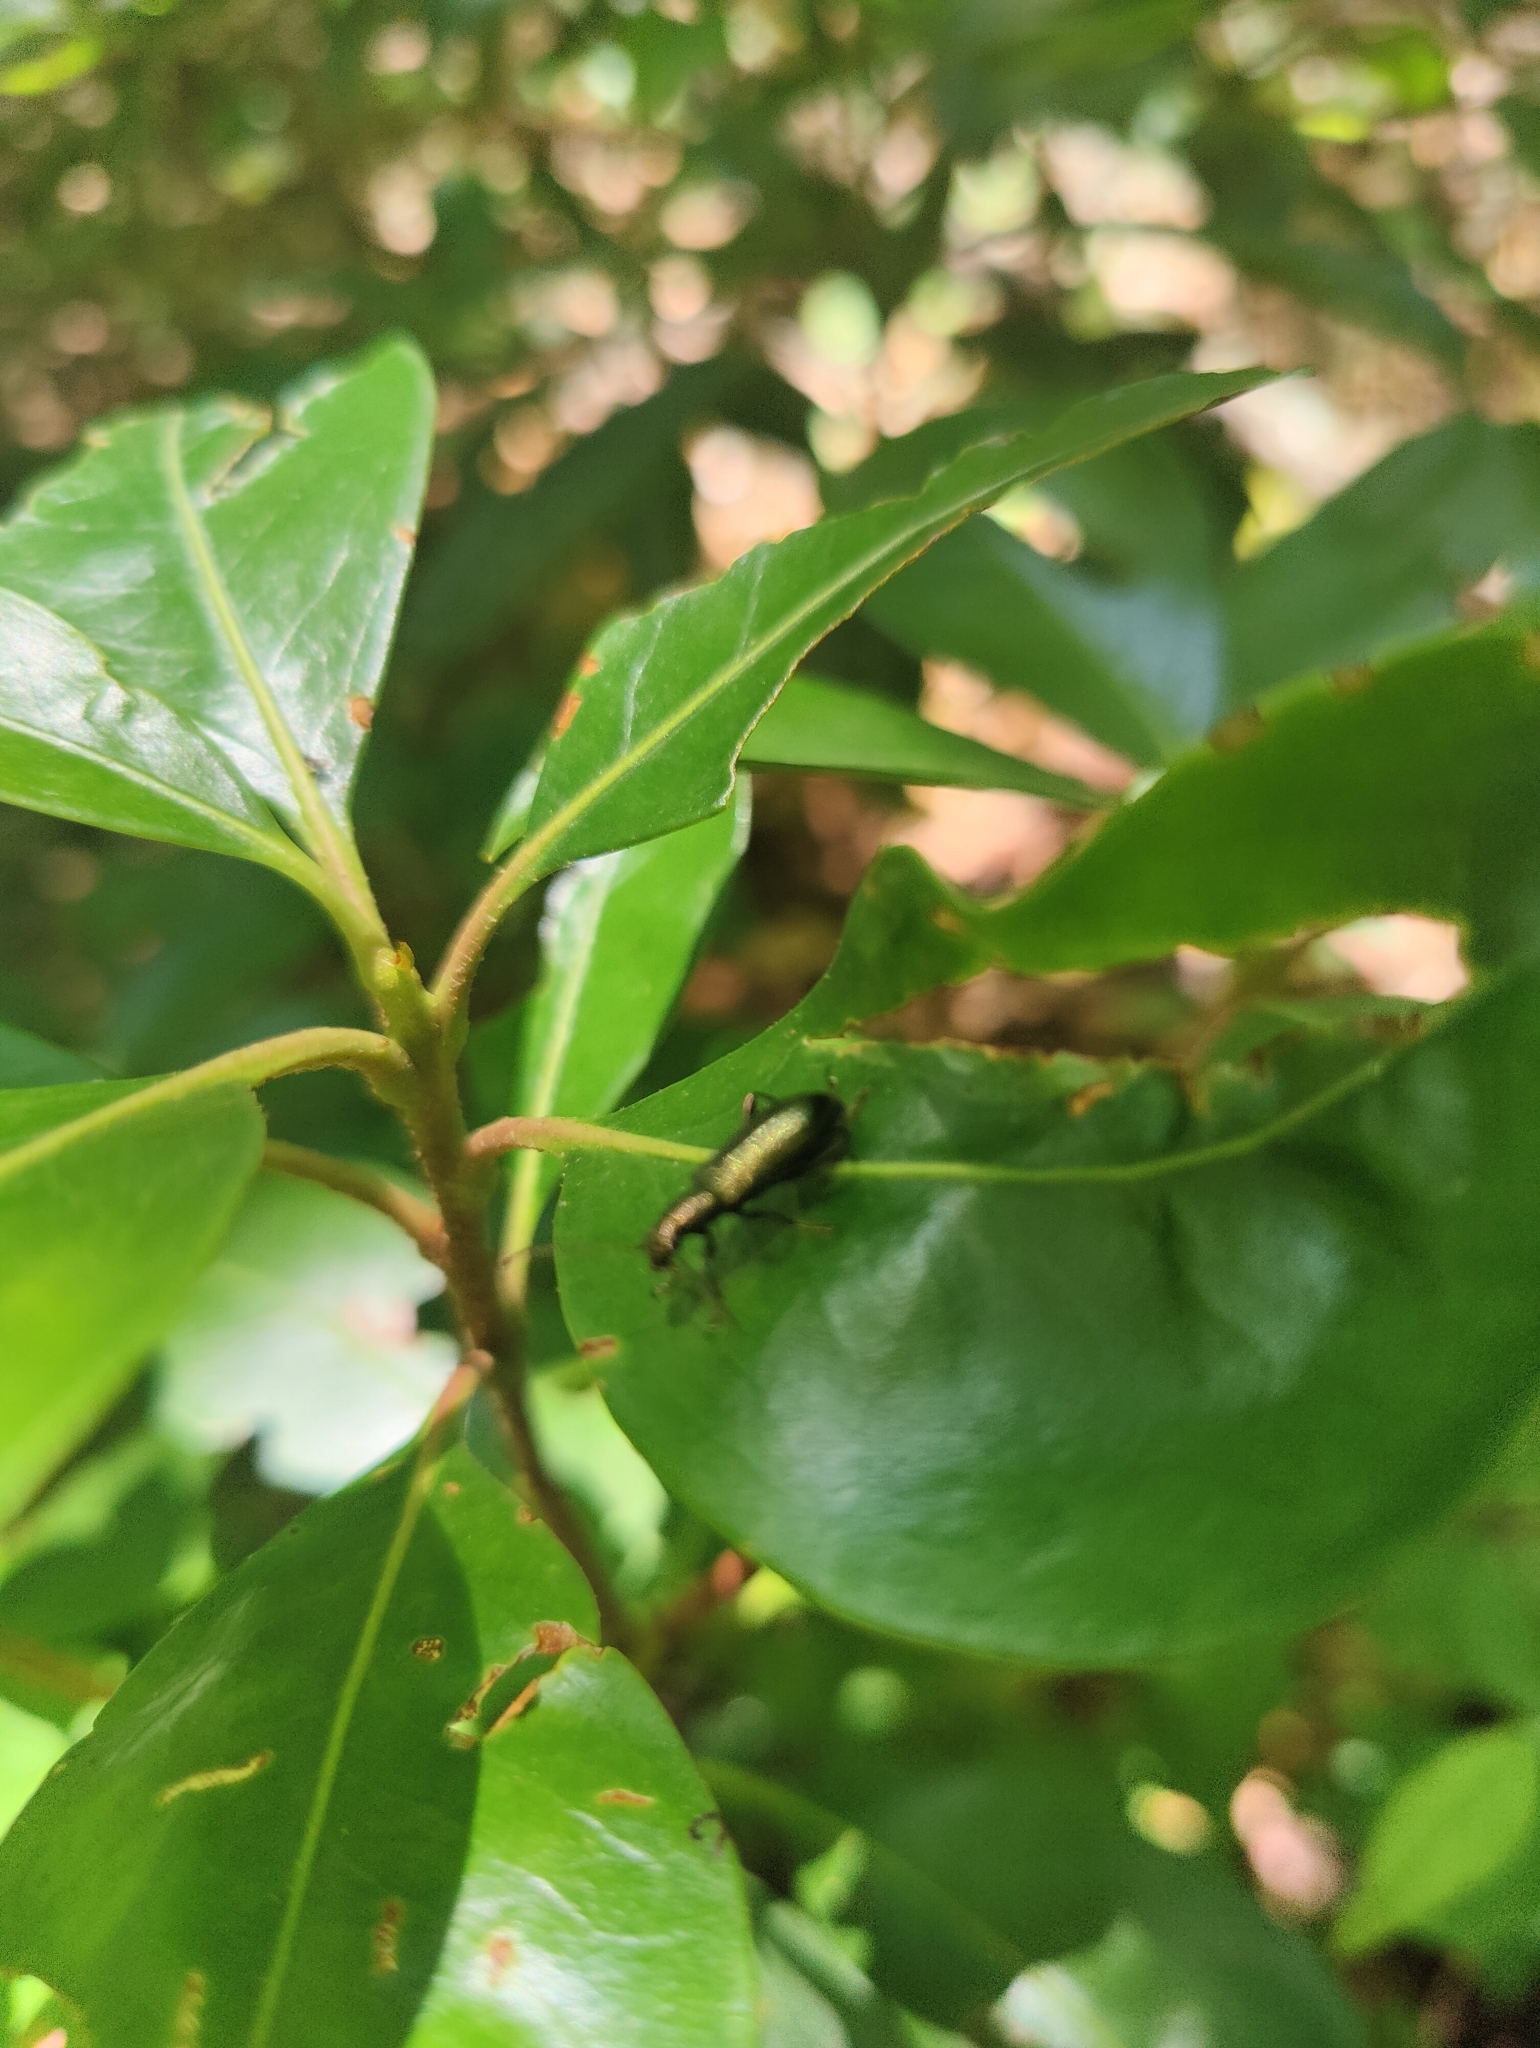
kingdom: Animalia
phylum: Arthropoda
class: Insecta
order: Coleoptera
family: Tenebrionidae
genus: Arthromacra
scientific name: Arthromacra aenea
